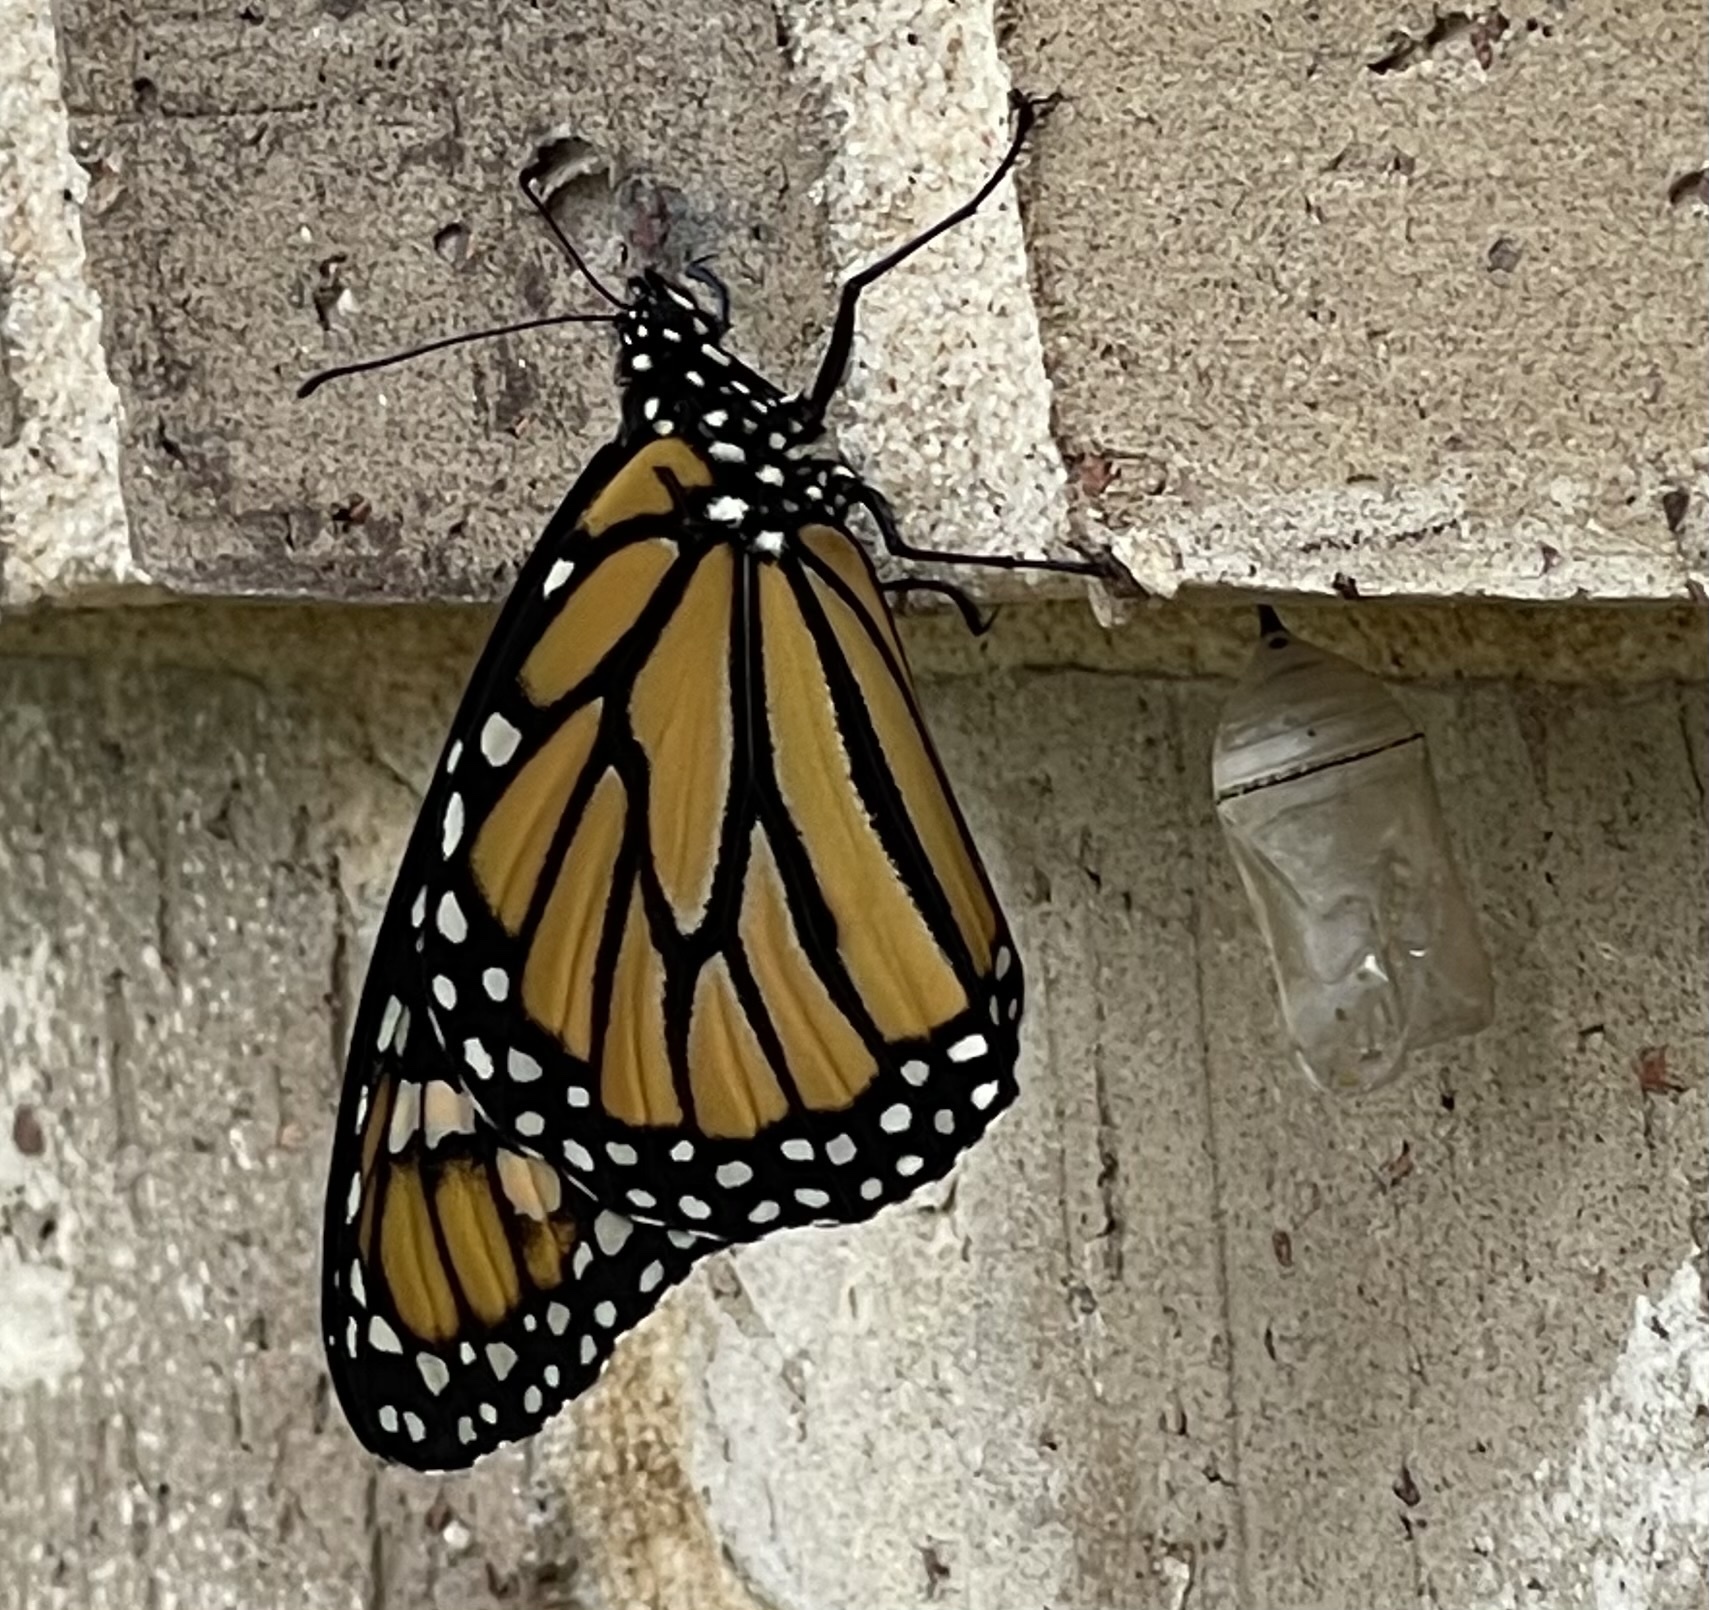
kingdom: Animalia
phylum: Arthropoda
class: Insecta
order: Lepidoptera
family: Nymphalidae
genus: Danaus
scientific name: Danaus plexippus
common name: Monarch
